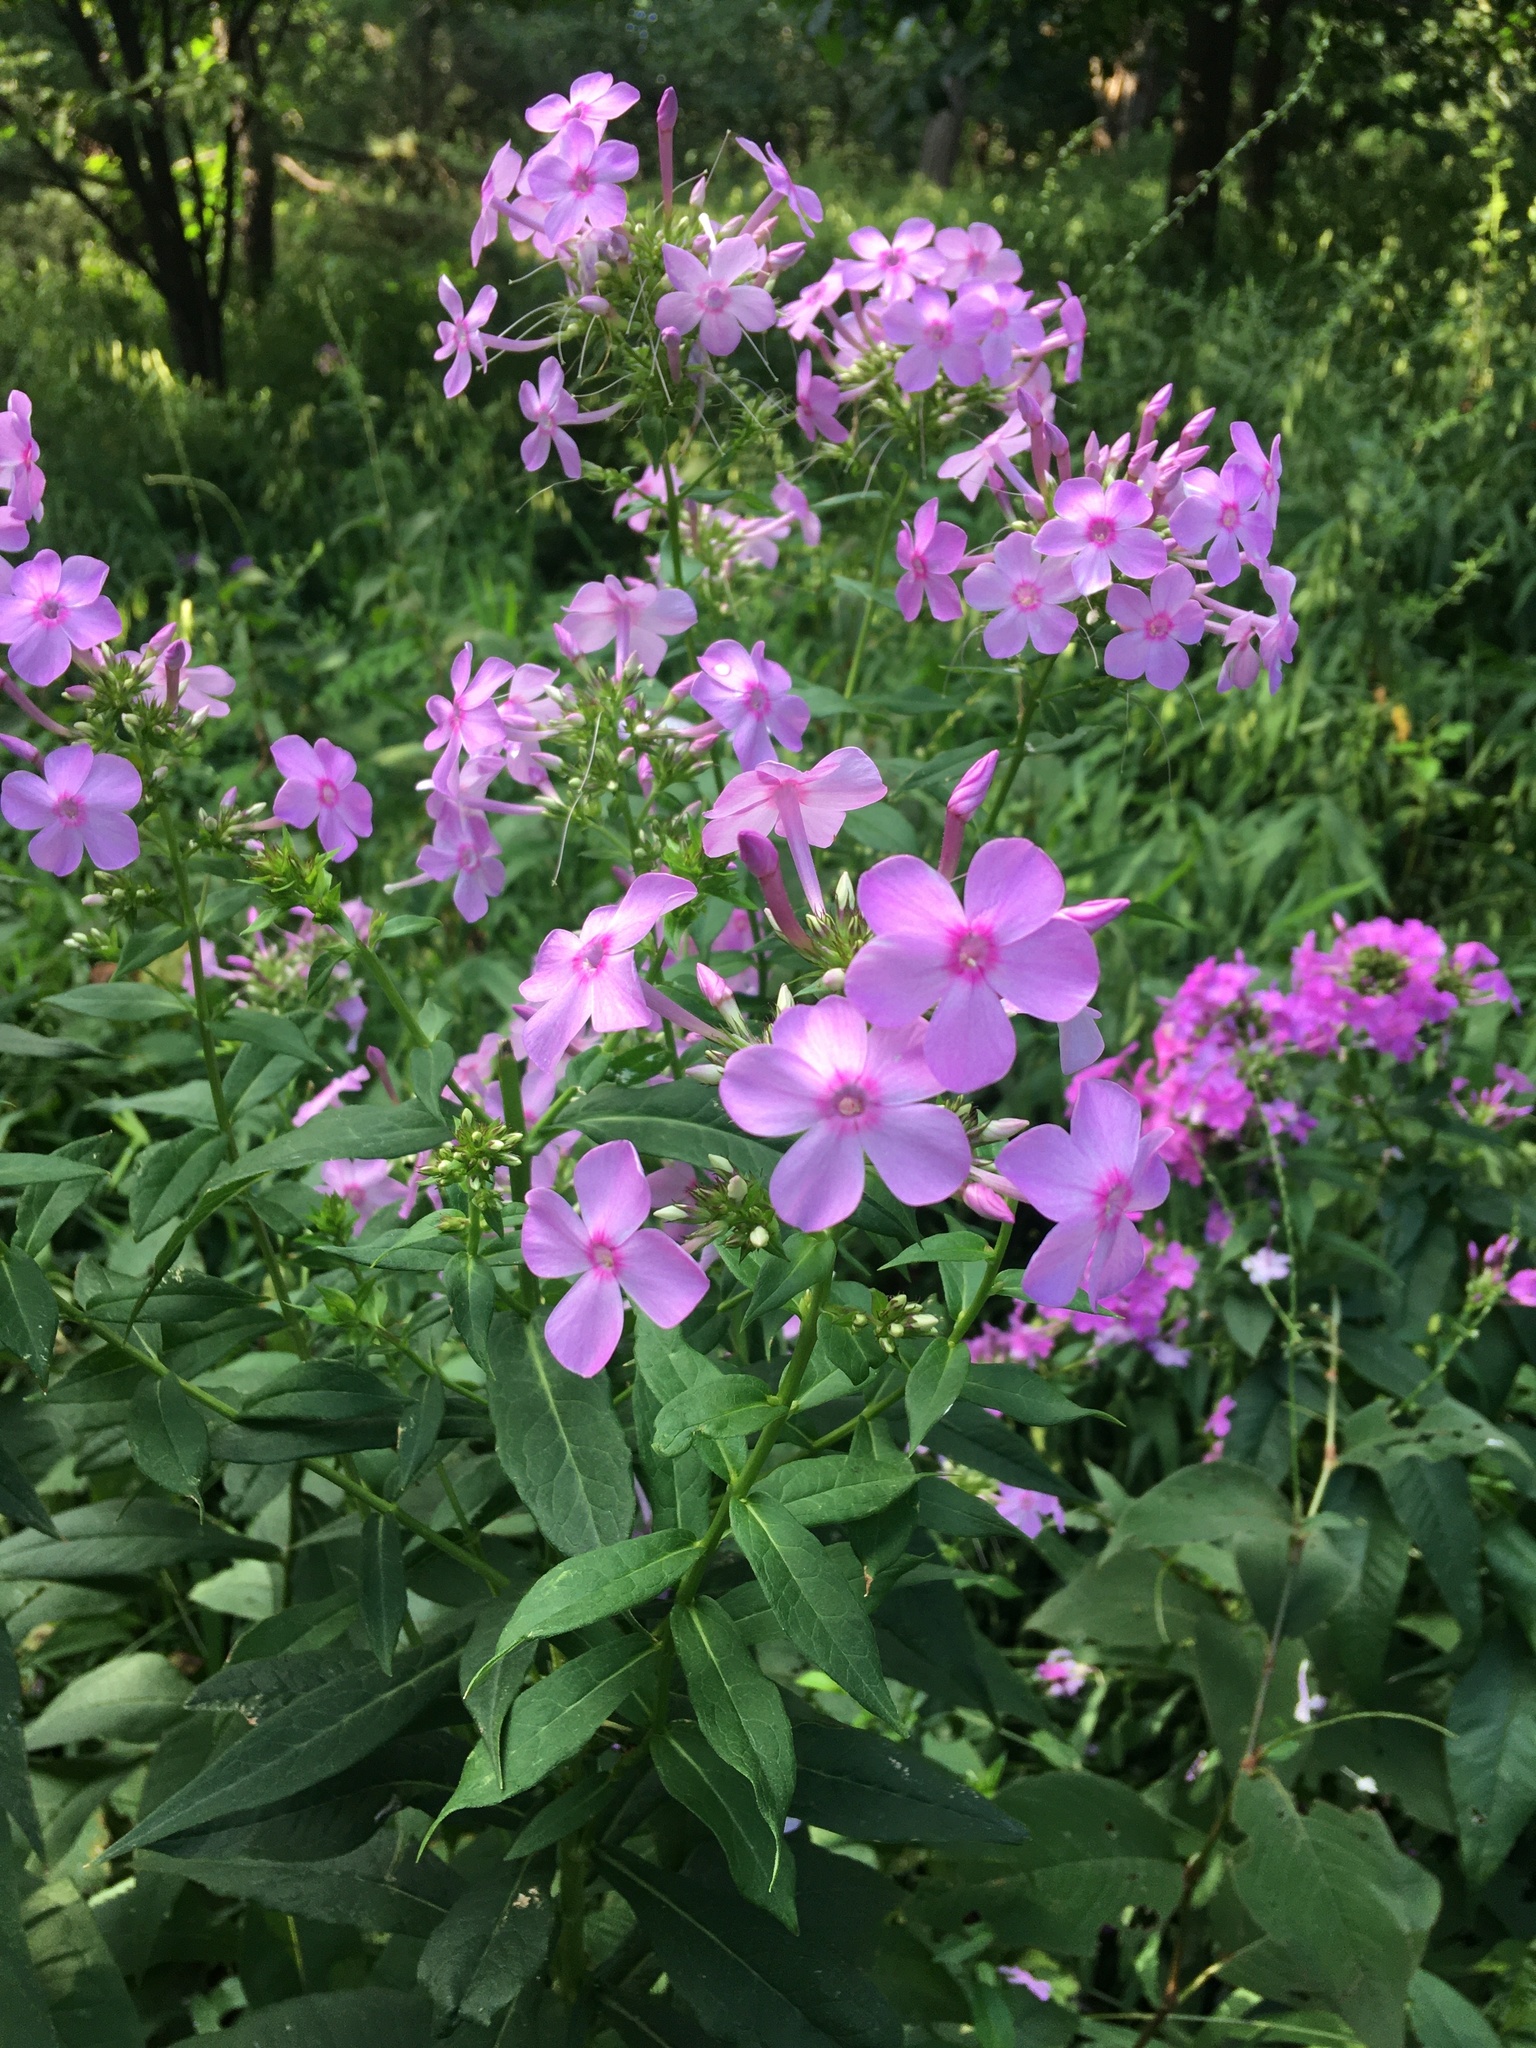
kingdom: Plantae
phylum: Tracheophyta
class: Magnoliopsida
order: Ericales
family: Polemoniaceae
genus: Phlox
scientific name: Phlox paniculata
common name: Fall phlox
